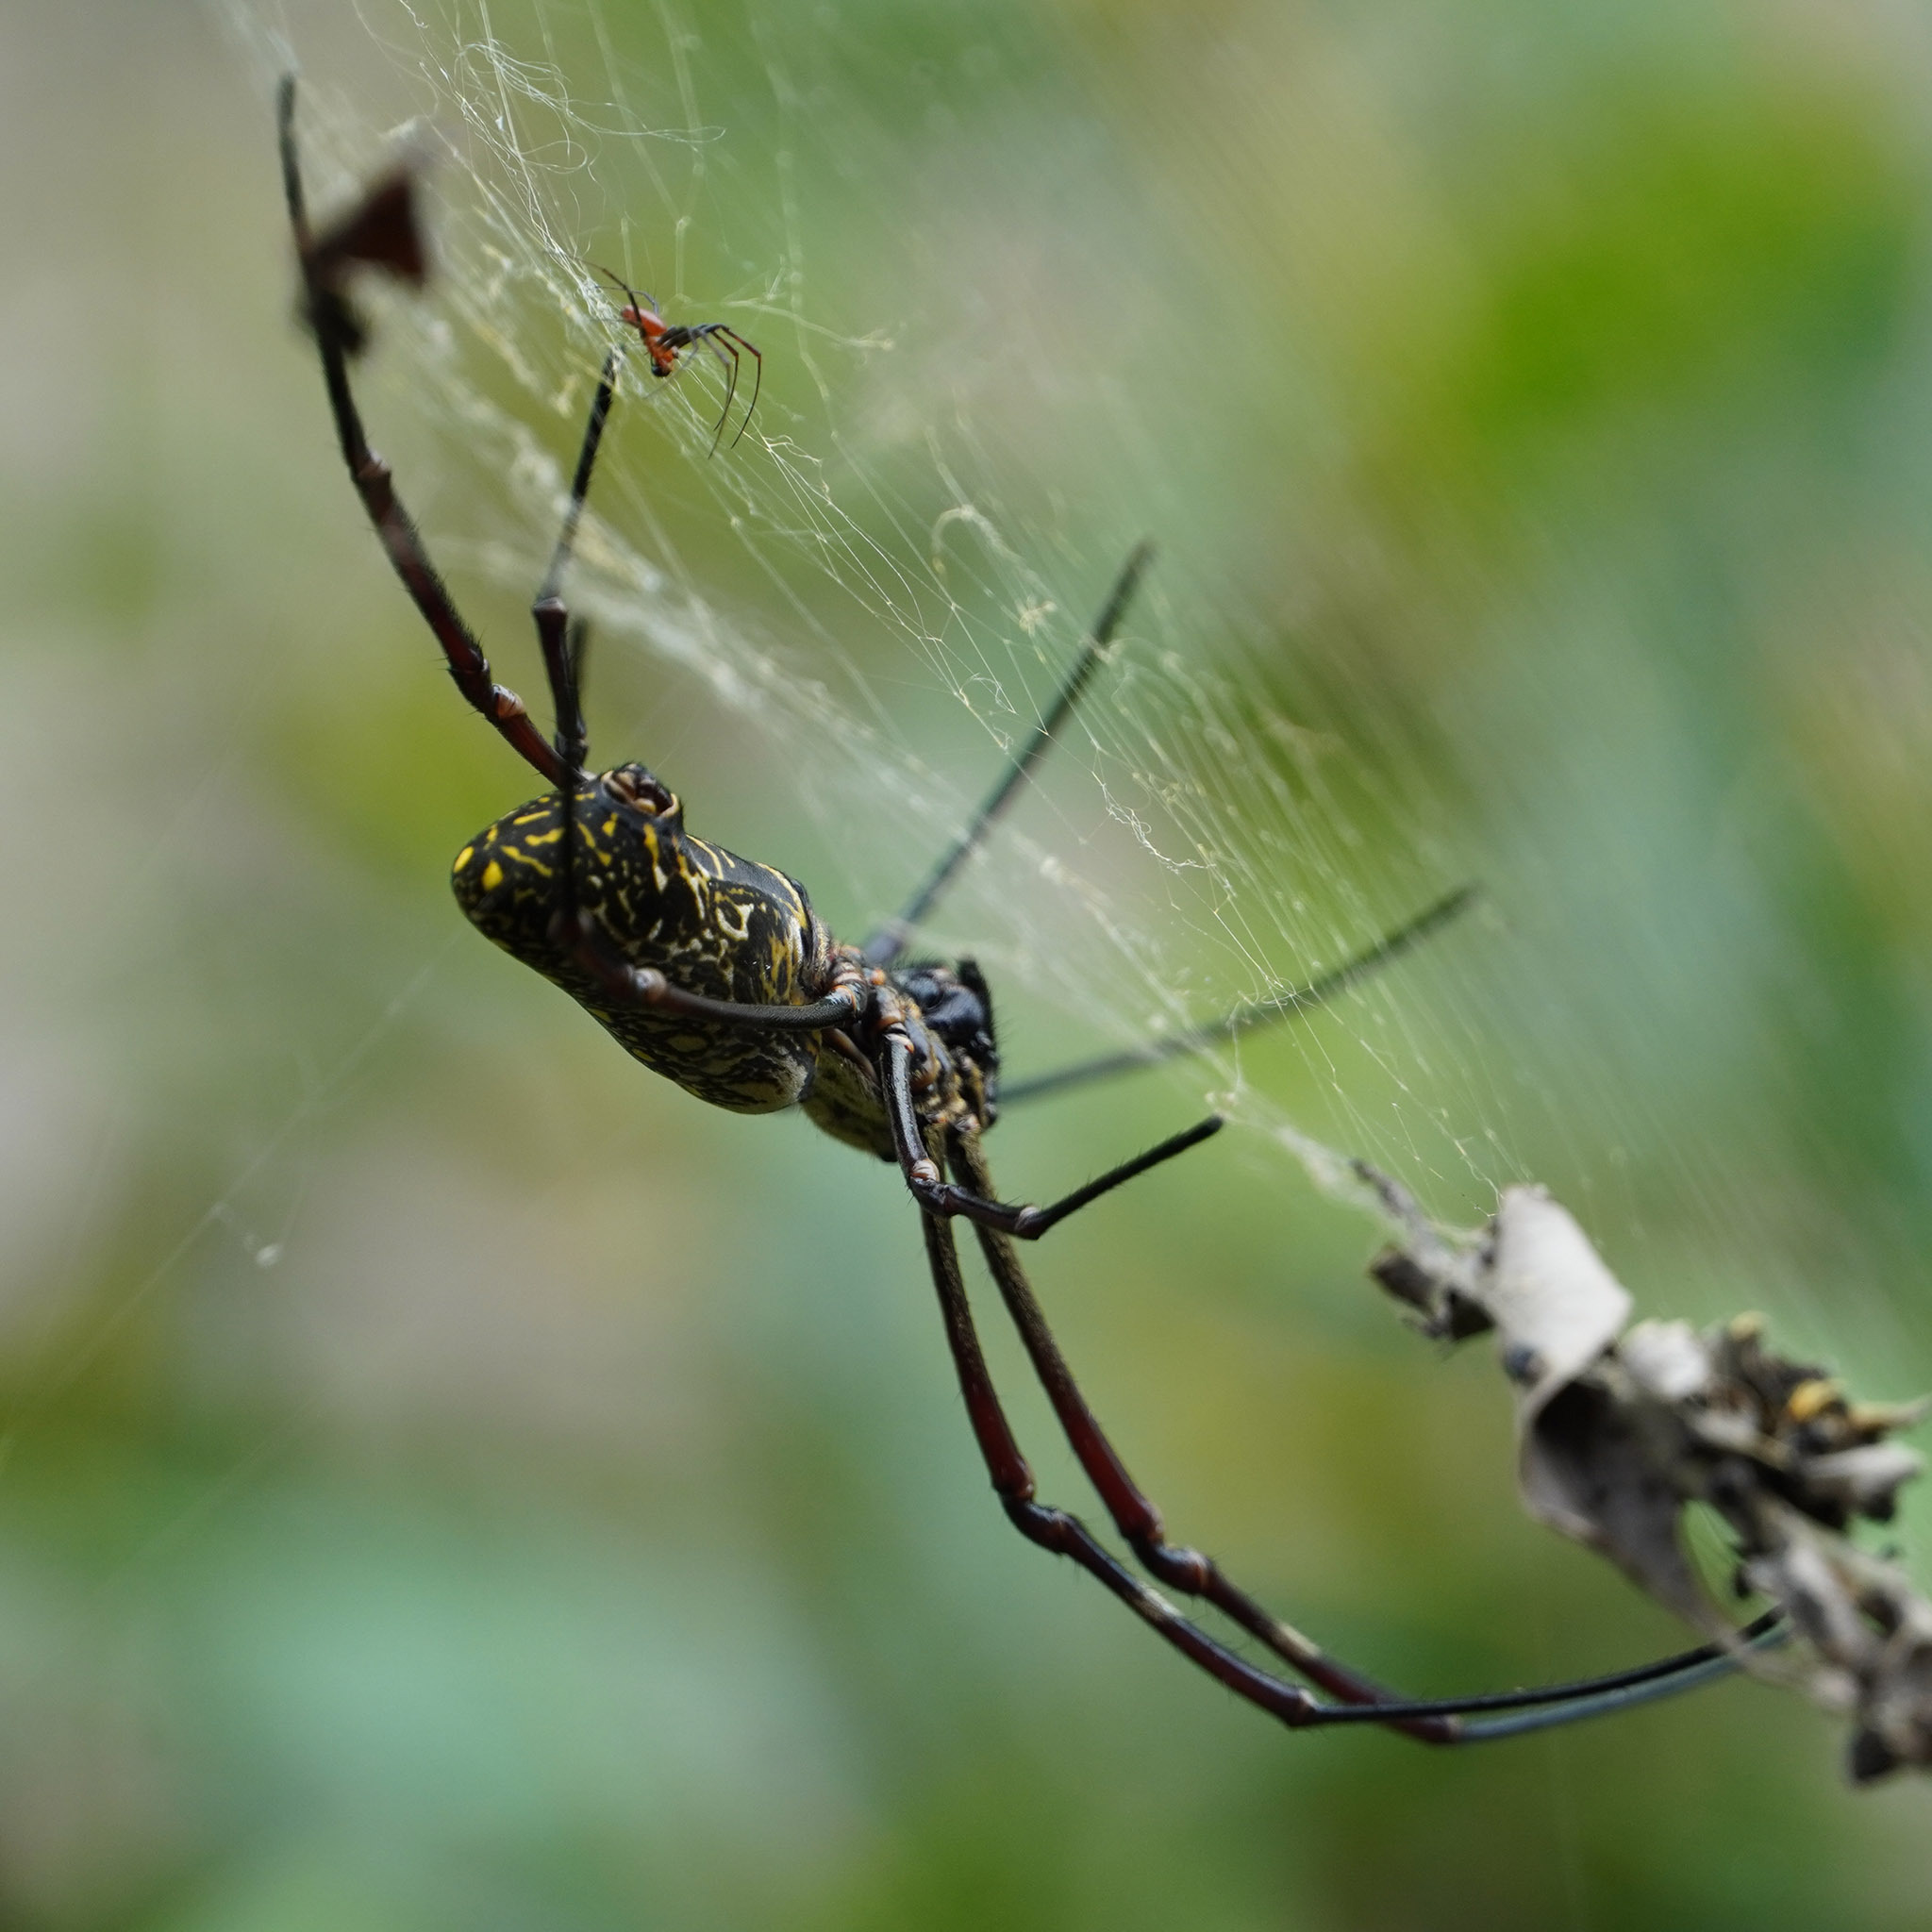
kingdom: Animalia
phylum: Arthropoda
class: Arachnida
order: Araneae
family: Araneidae
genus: Trichonephila
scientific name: Trichonephila antipodiana
